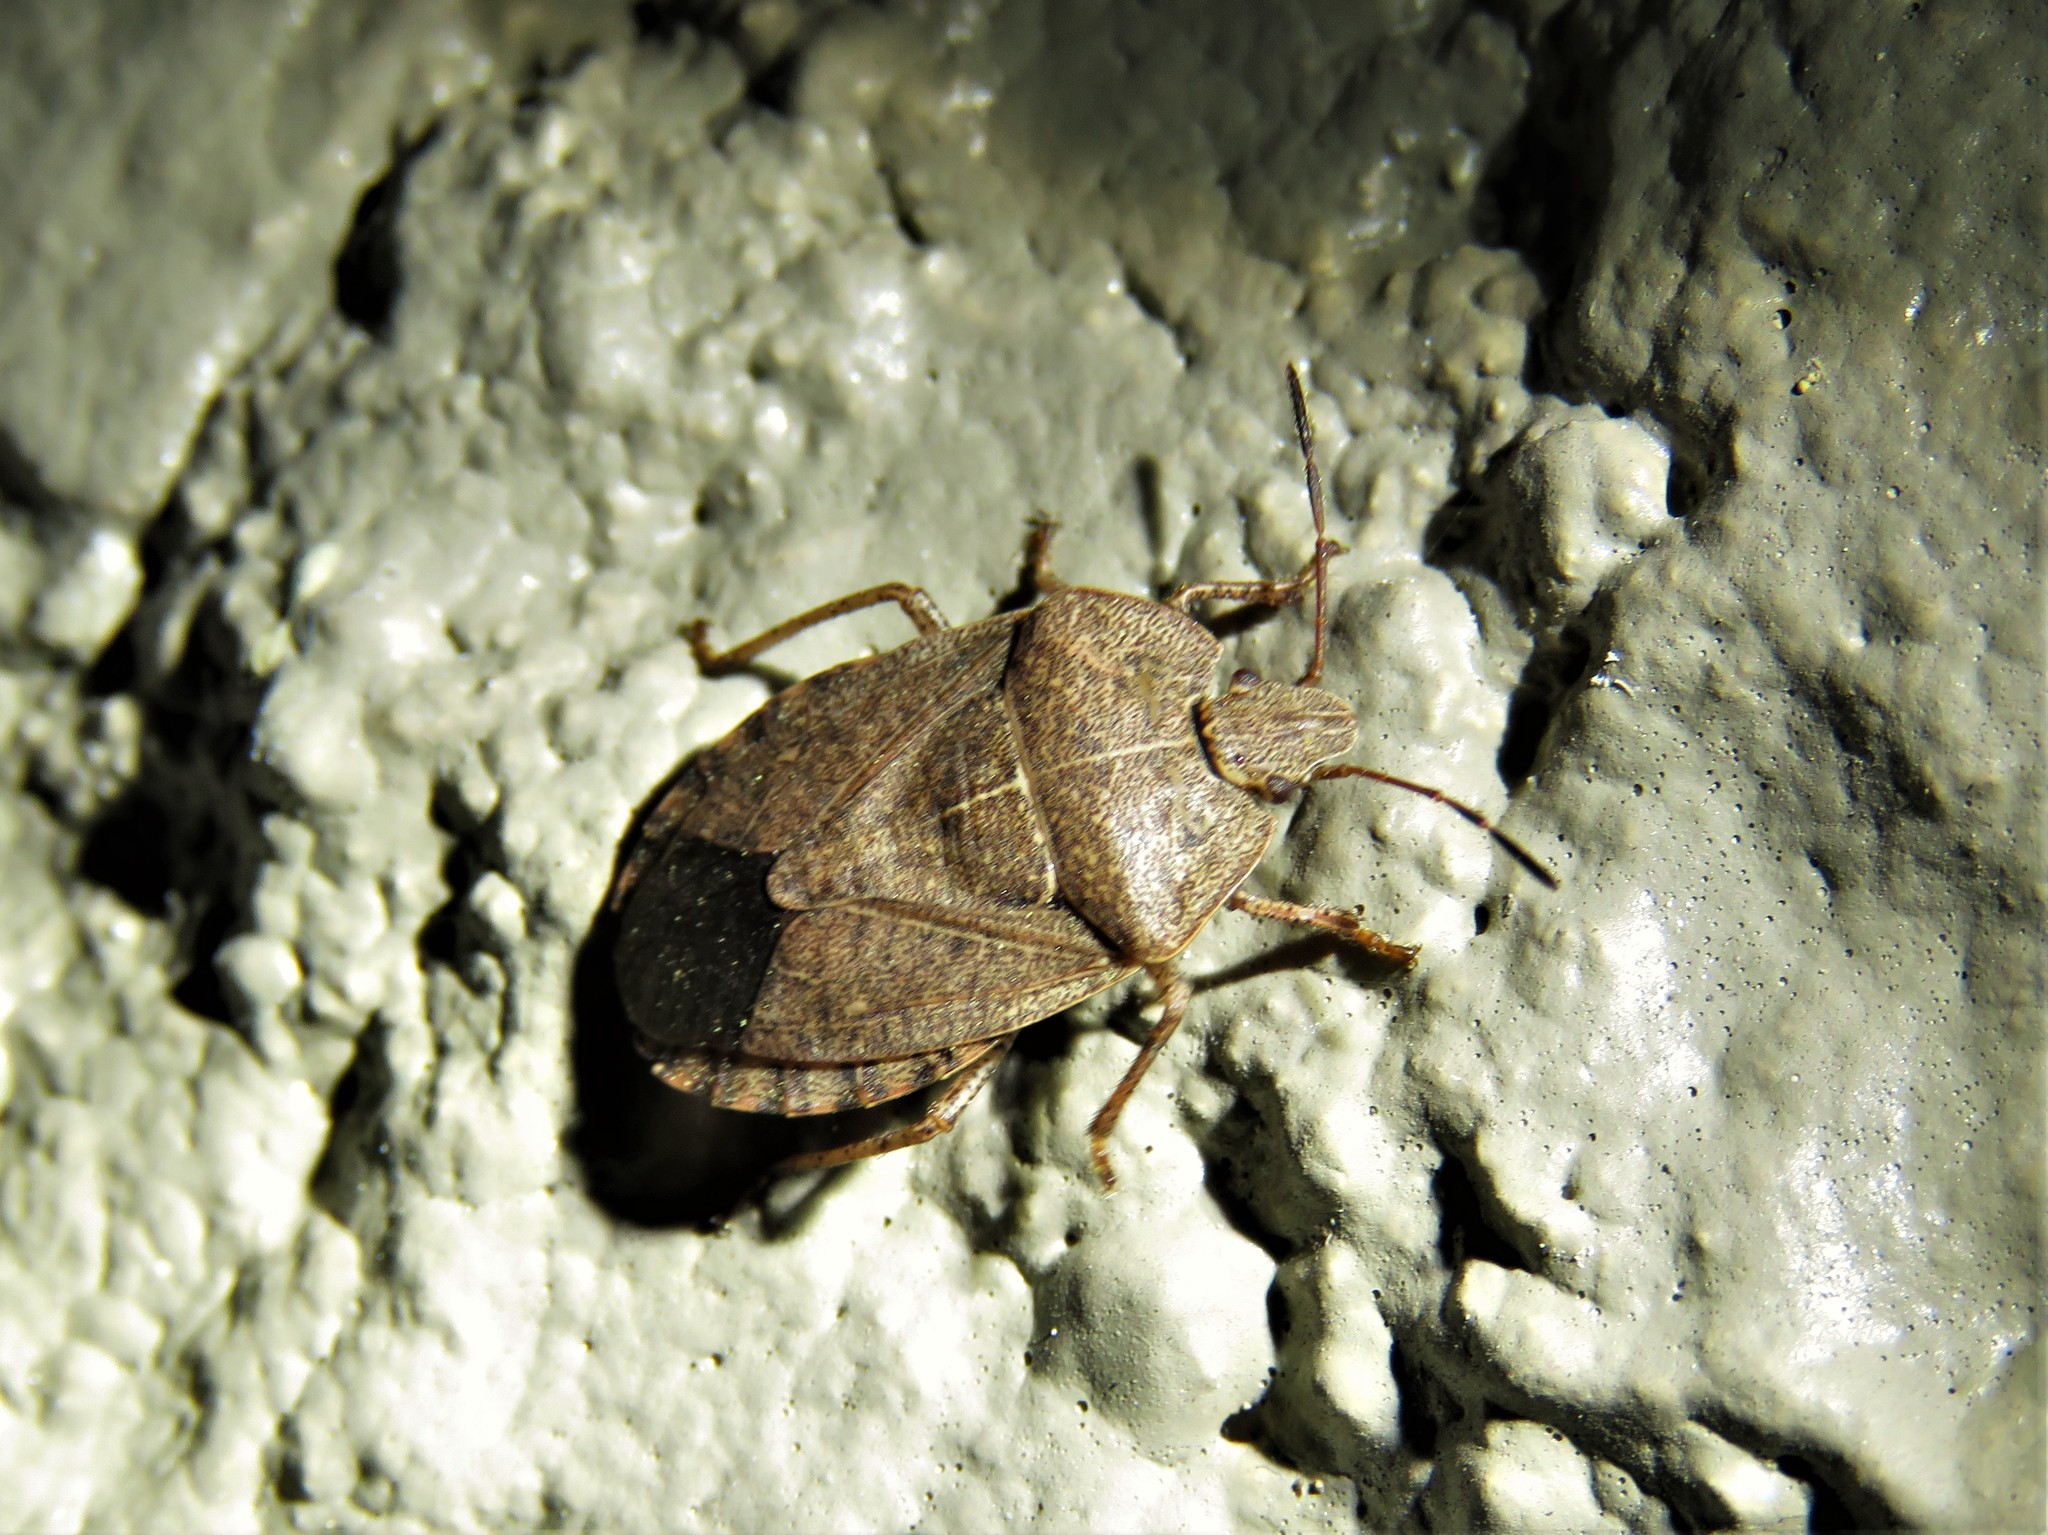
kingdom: Animalia
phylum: Arthropoda
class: Insecta
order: Hemiptera
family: Pentatomidae
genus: Menecles
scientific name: Menecles insertus
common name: Elf shoe stink bug
